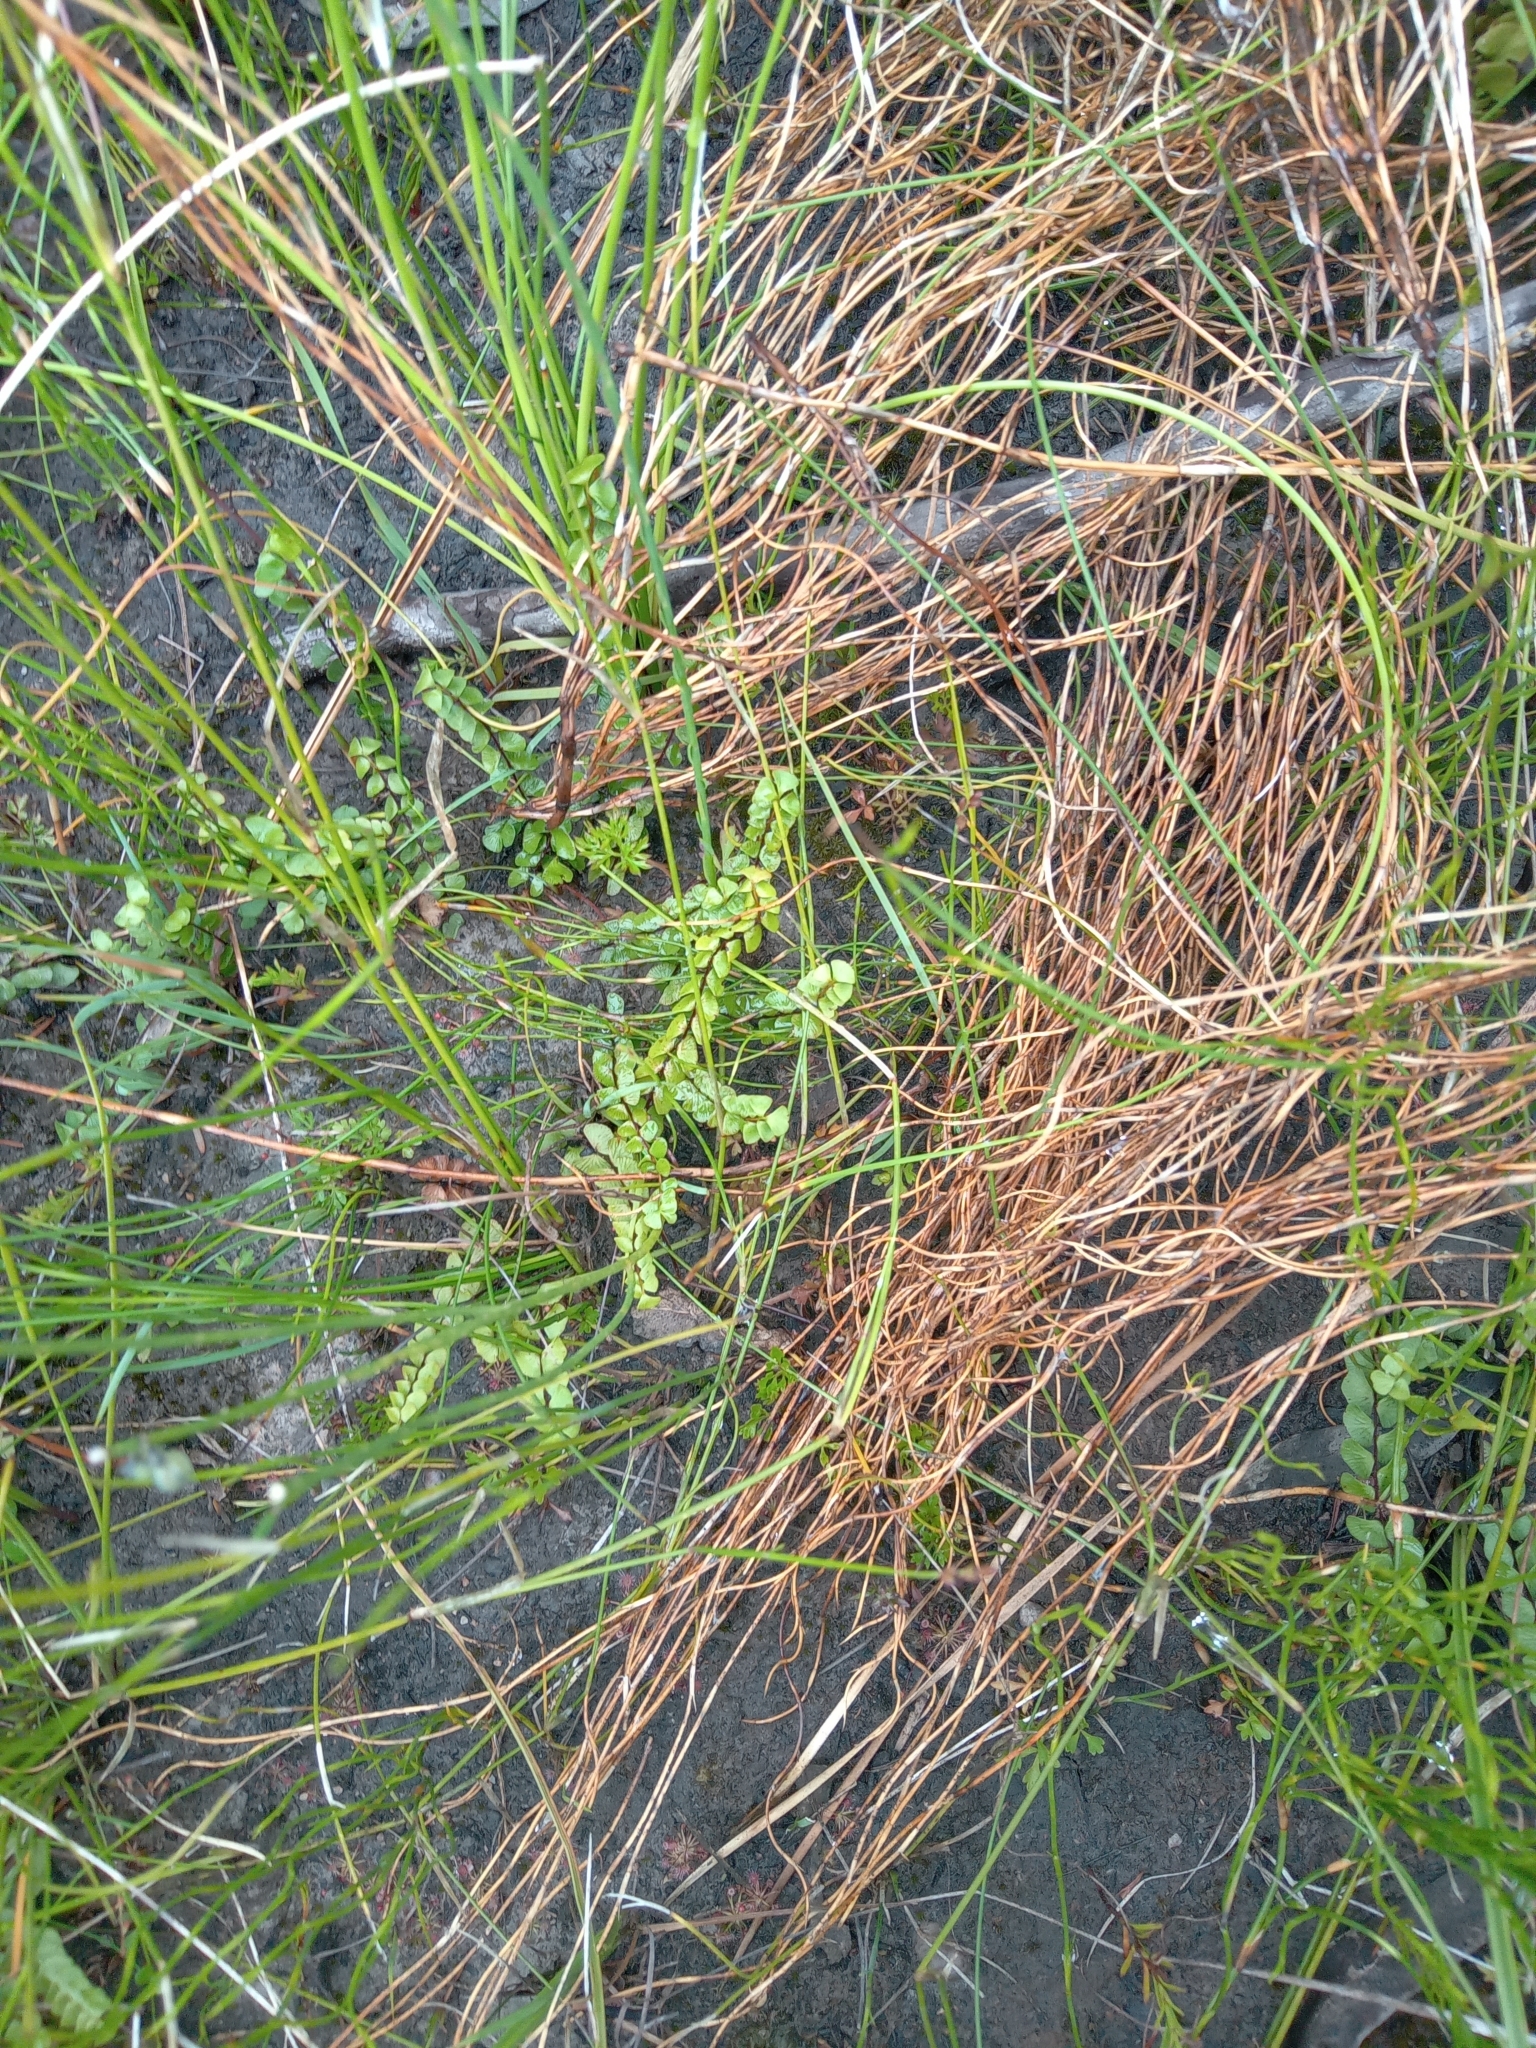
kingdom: Plantae
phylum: Tracheophyta
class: Polypodiopsida
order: Polypodiales
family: Lindsaeaceae
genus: Lindsaea
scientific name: Lindsaea linearis
